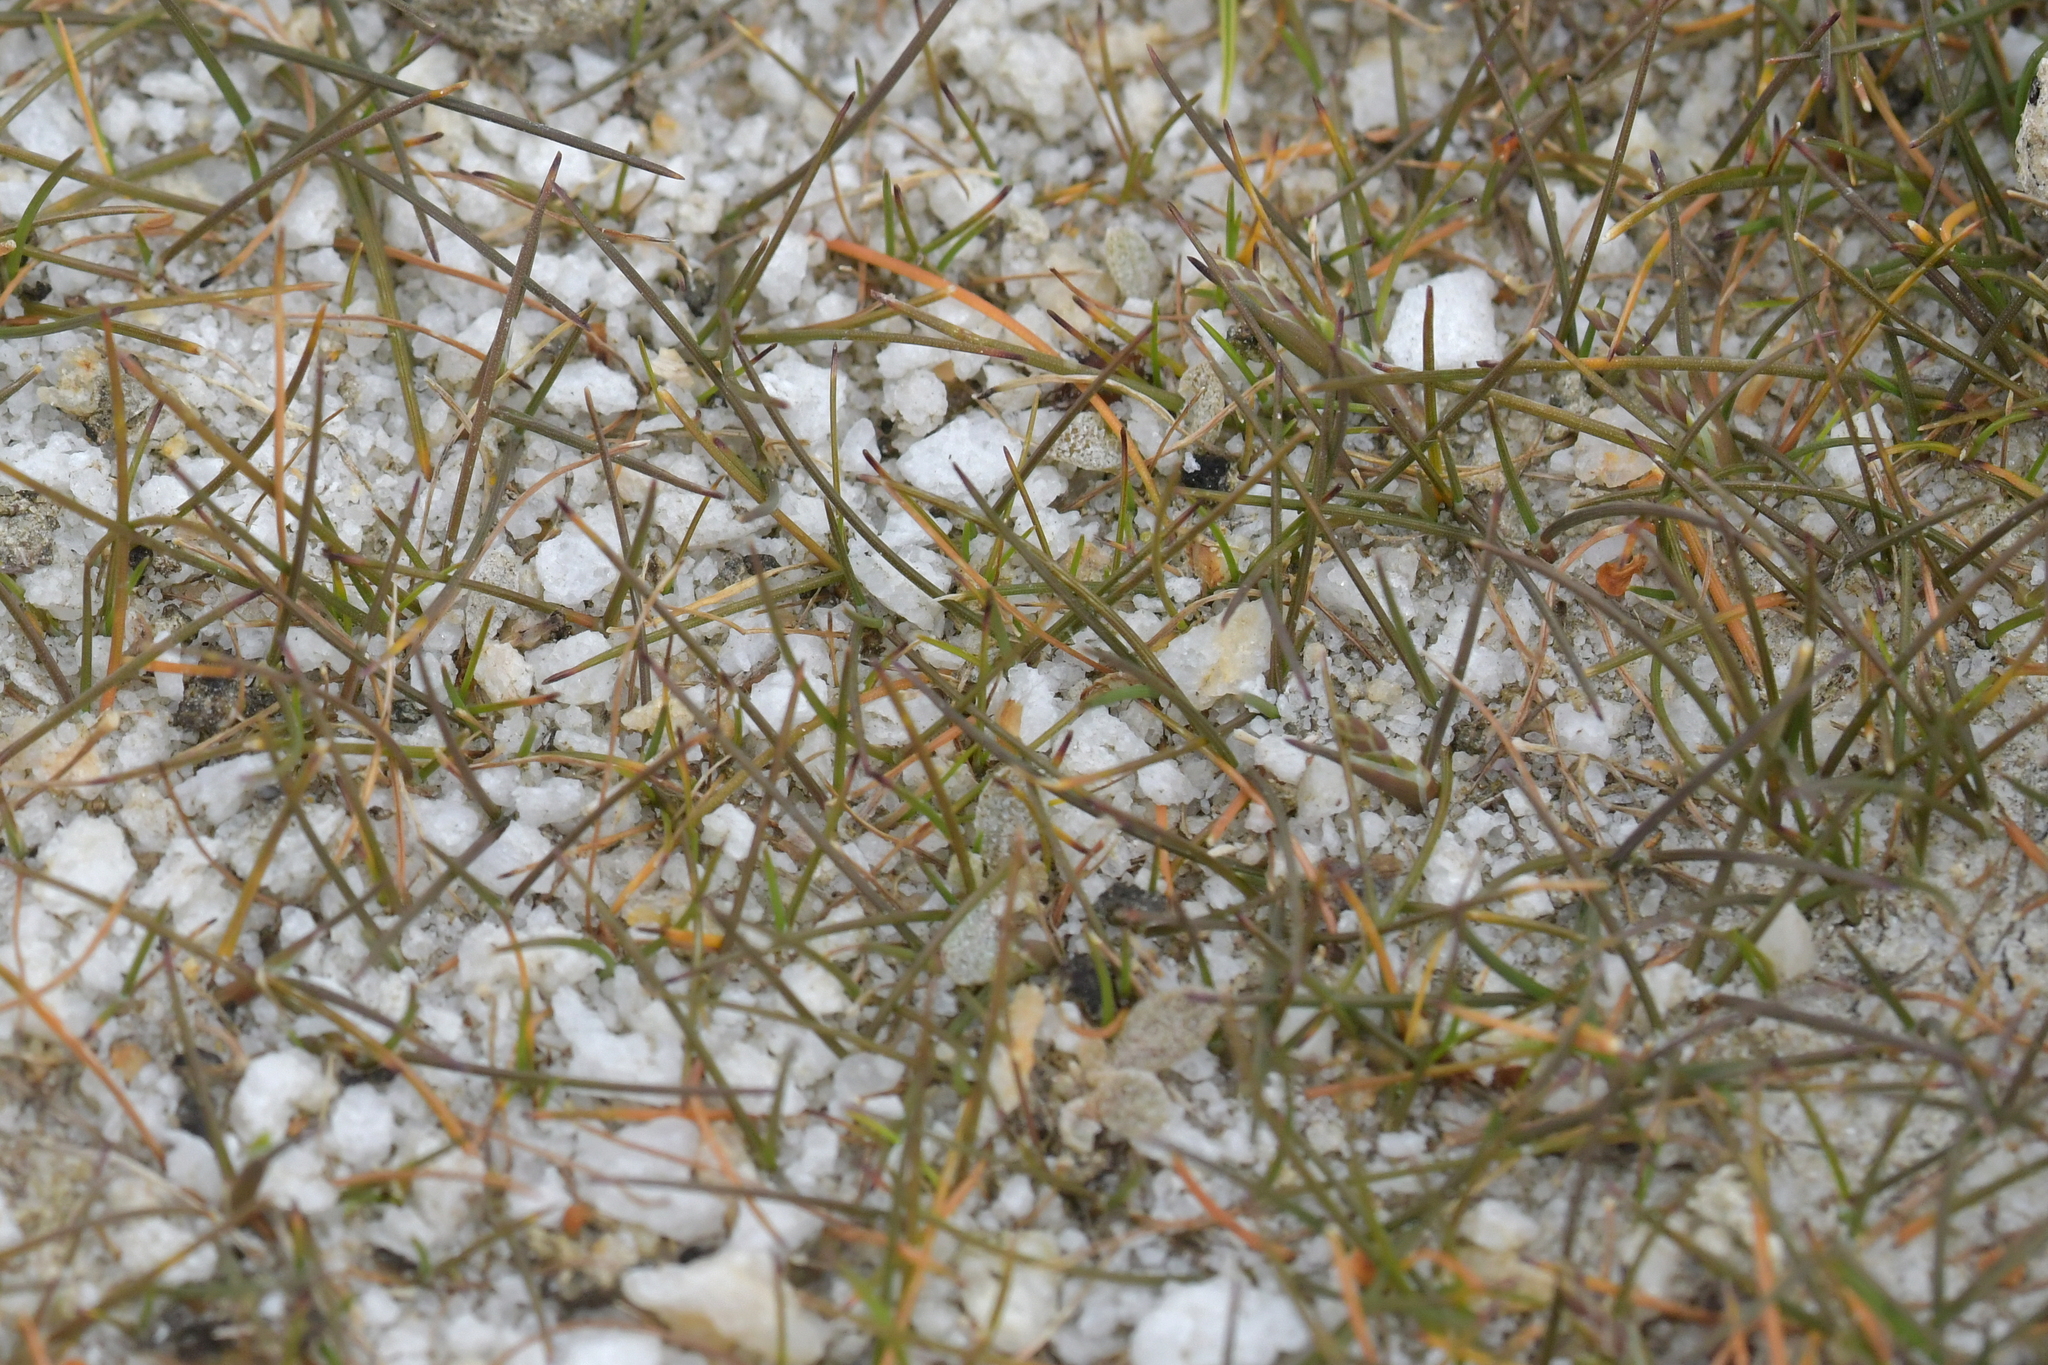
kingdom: Plantae
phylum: Tracheophyta
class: Liliopsida
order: Poales
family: Poaceae
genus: Puccinellia
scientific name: Puccinellia raroflorens
